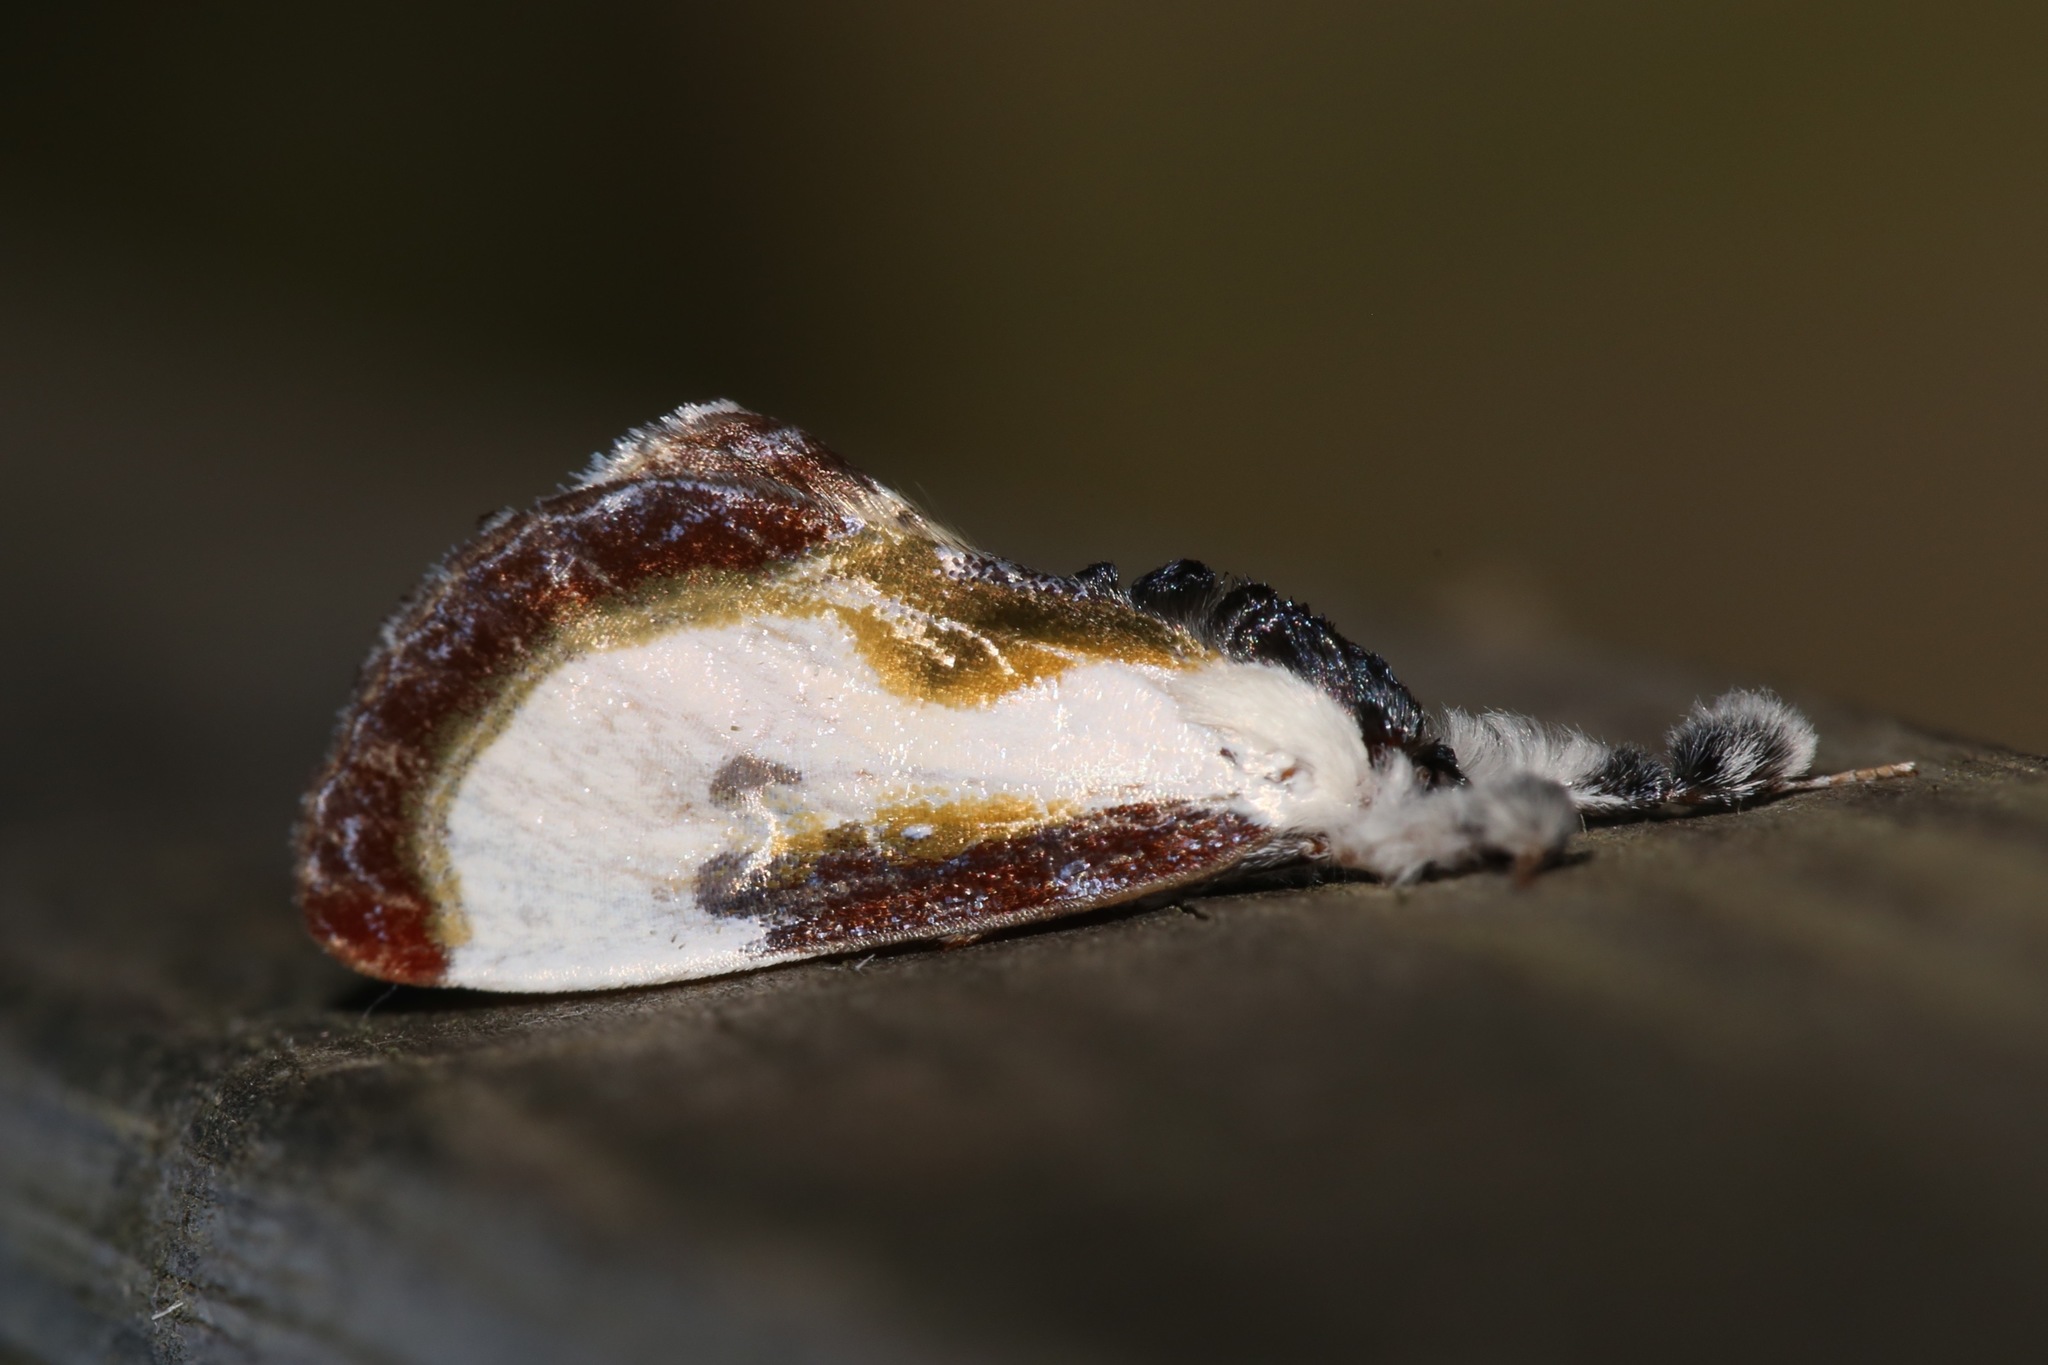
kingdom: Animalia
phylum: Arthropoda
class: Insecta
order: Lepidoptera
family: Noctuidae
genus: Eudryas
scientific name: Eudryas grata
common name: Beautiful wood-nymph
